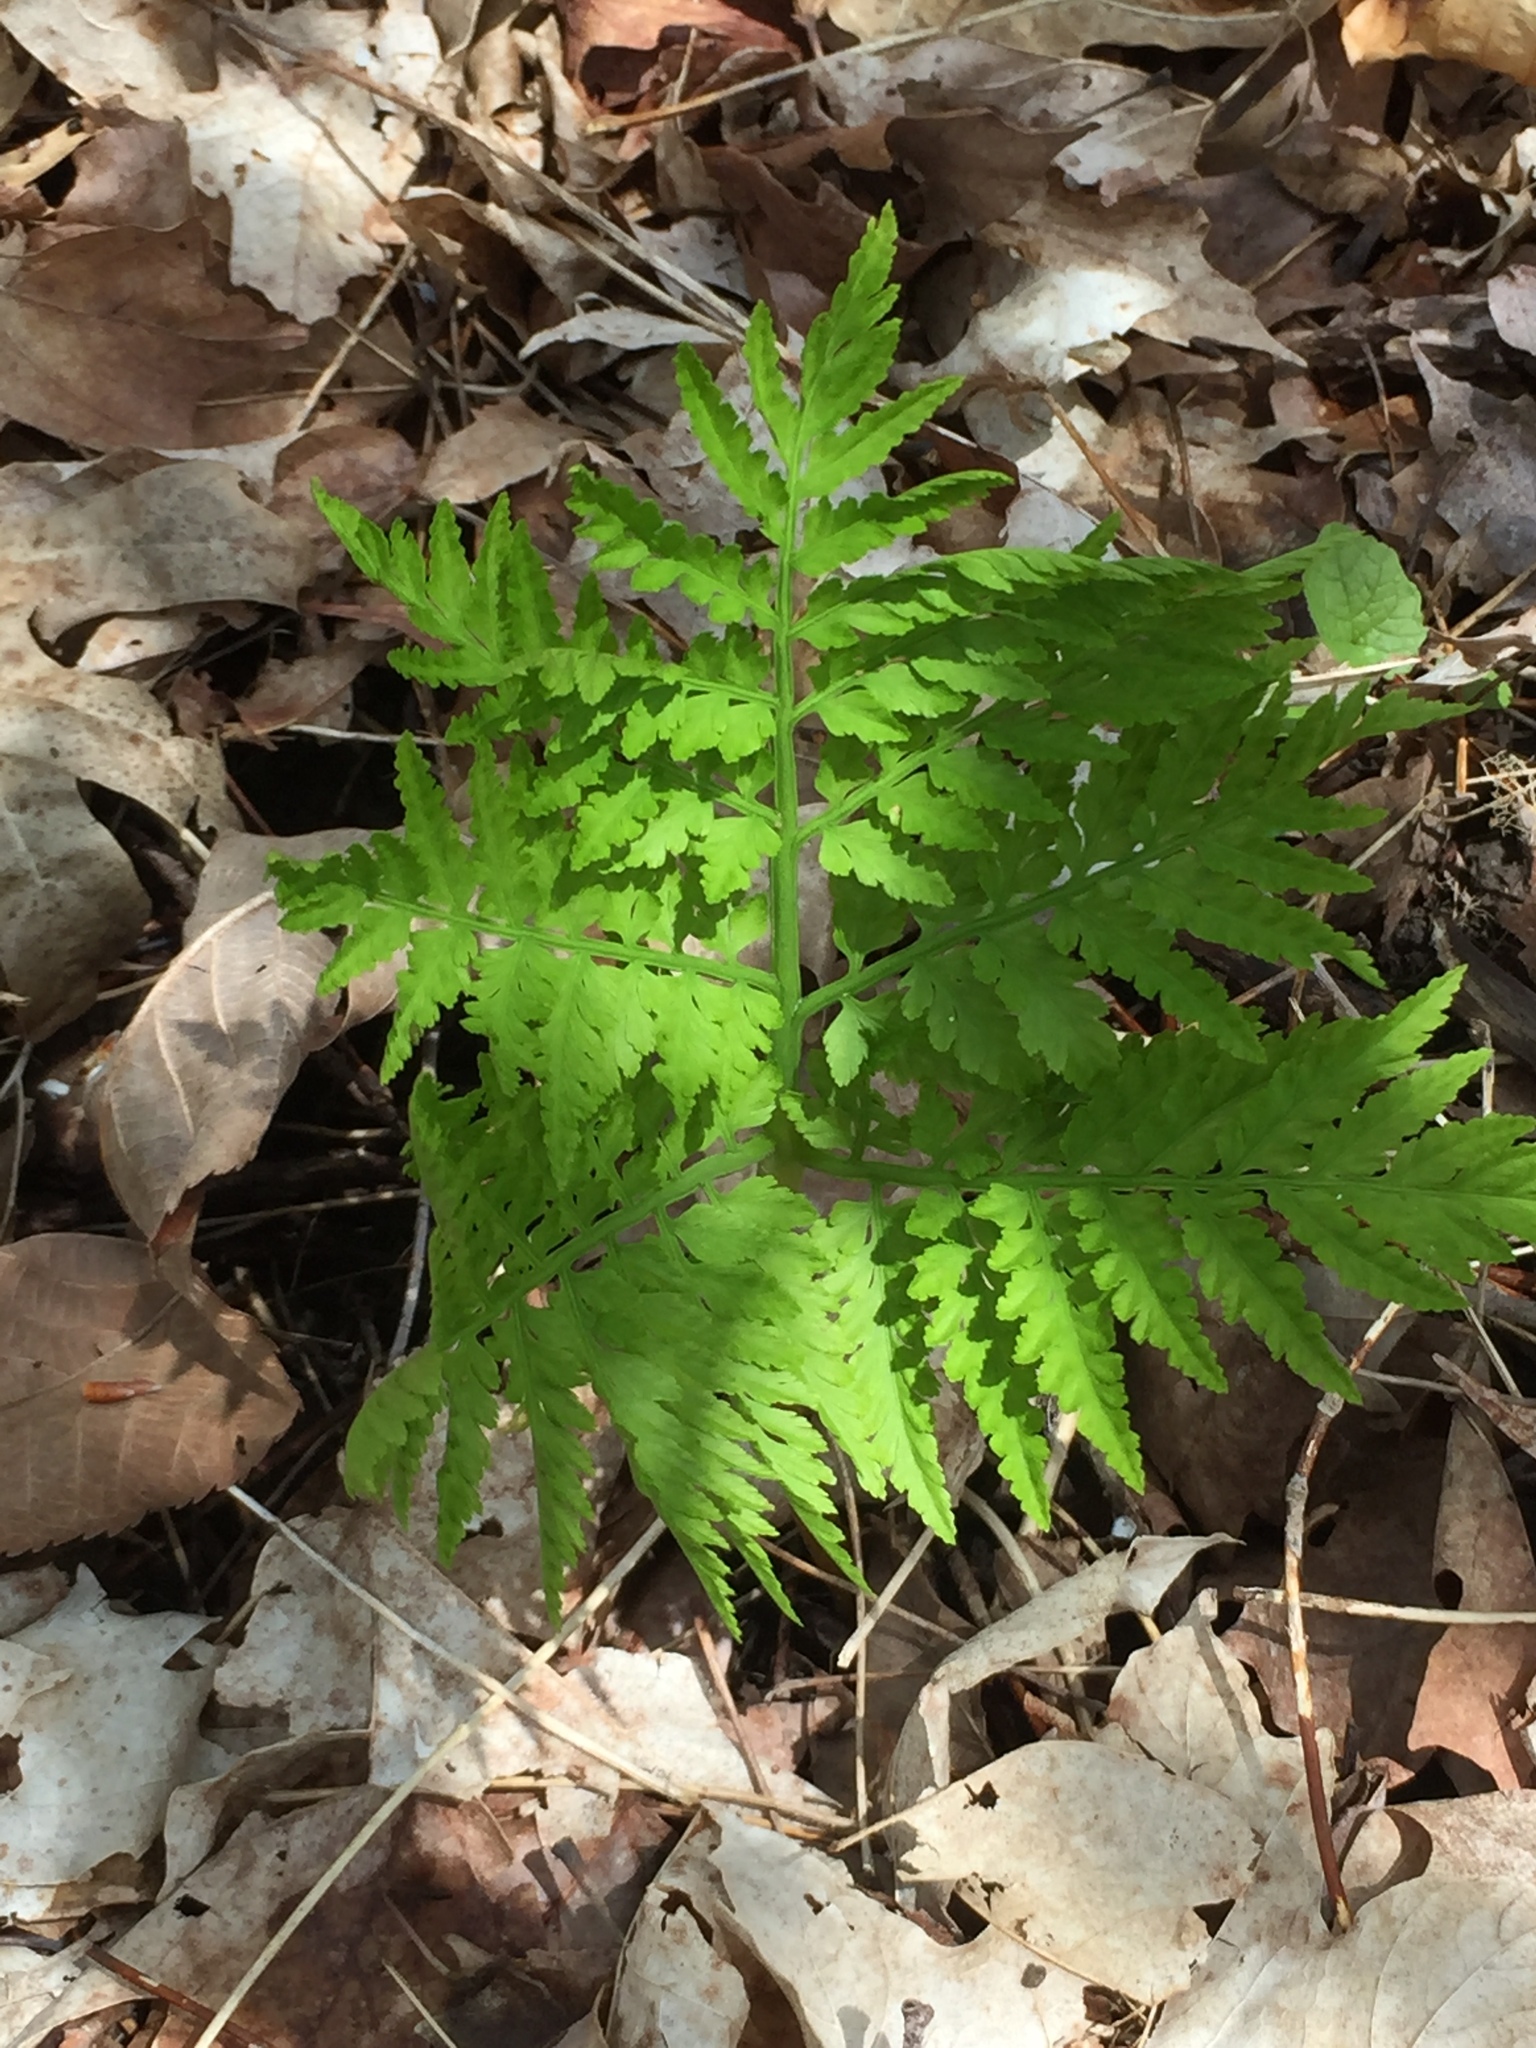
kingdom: Plantae
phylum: Tracheophyta
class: Polypodiopsida
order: Ophioglossales
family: Ophioglossaceae
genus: Botrypus
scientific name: Botrypus virginianus
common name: Common grapefern
